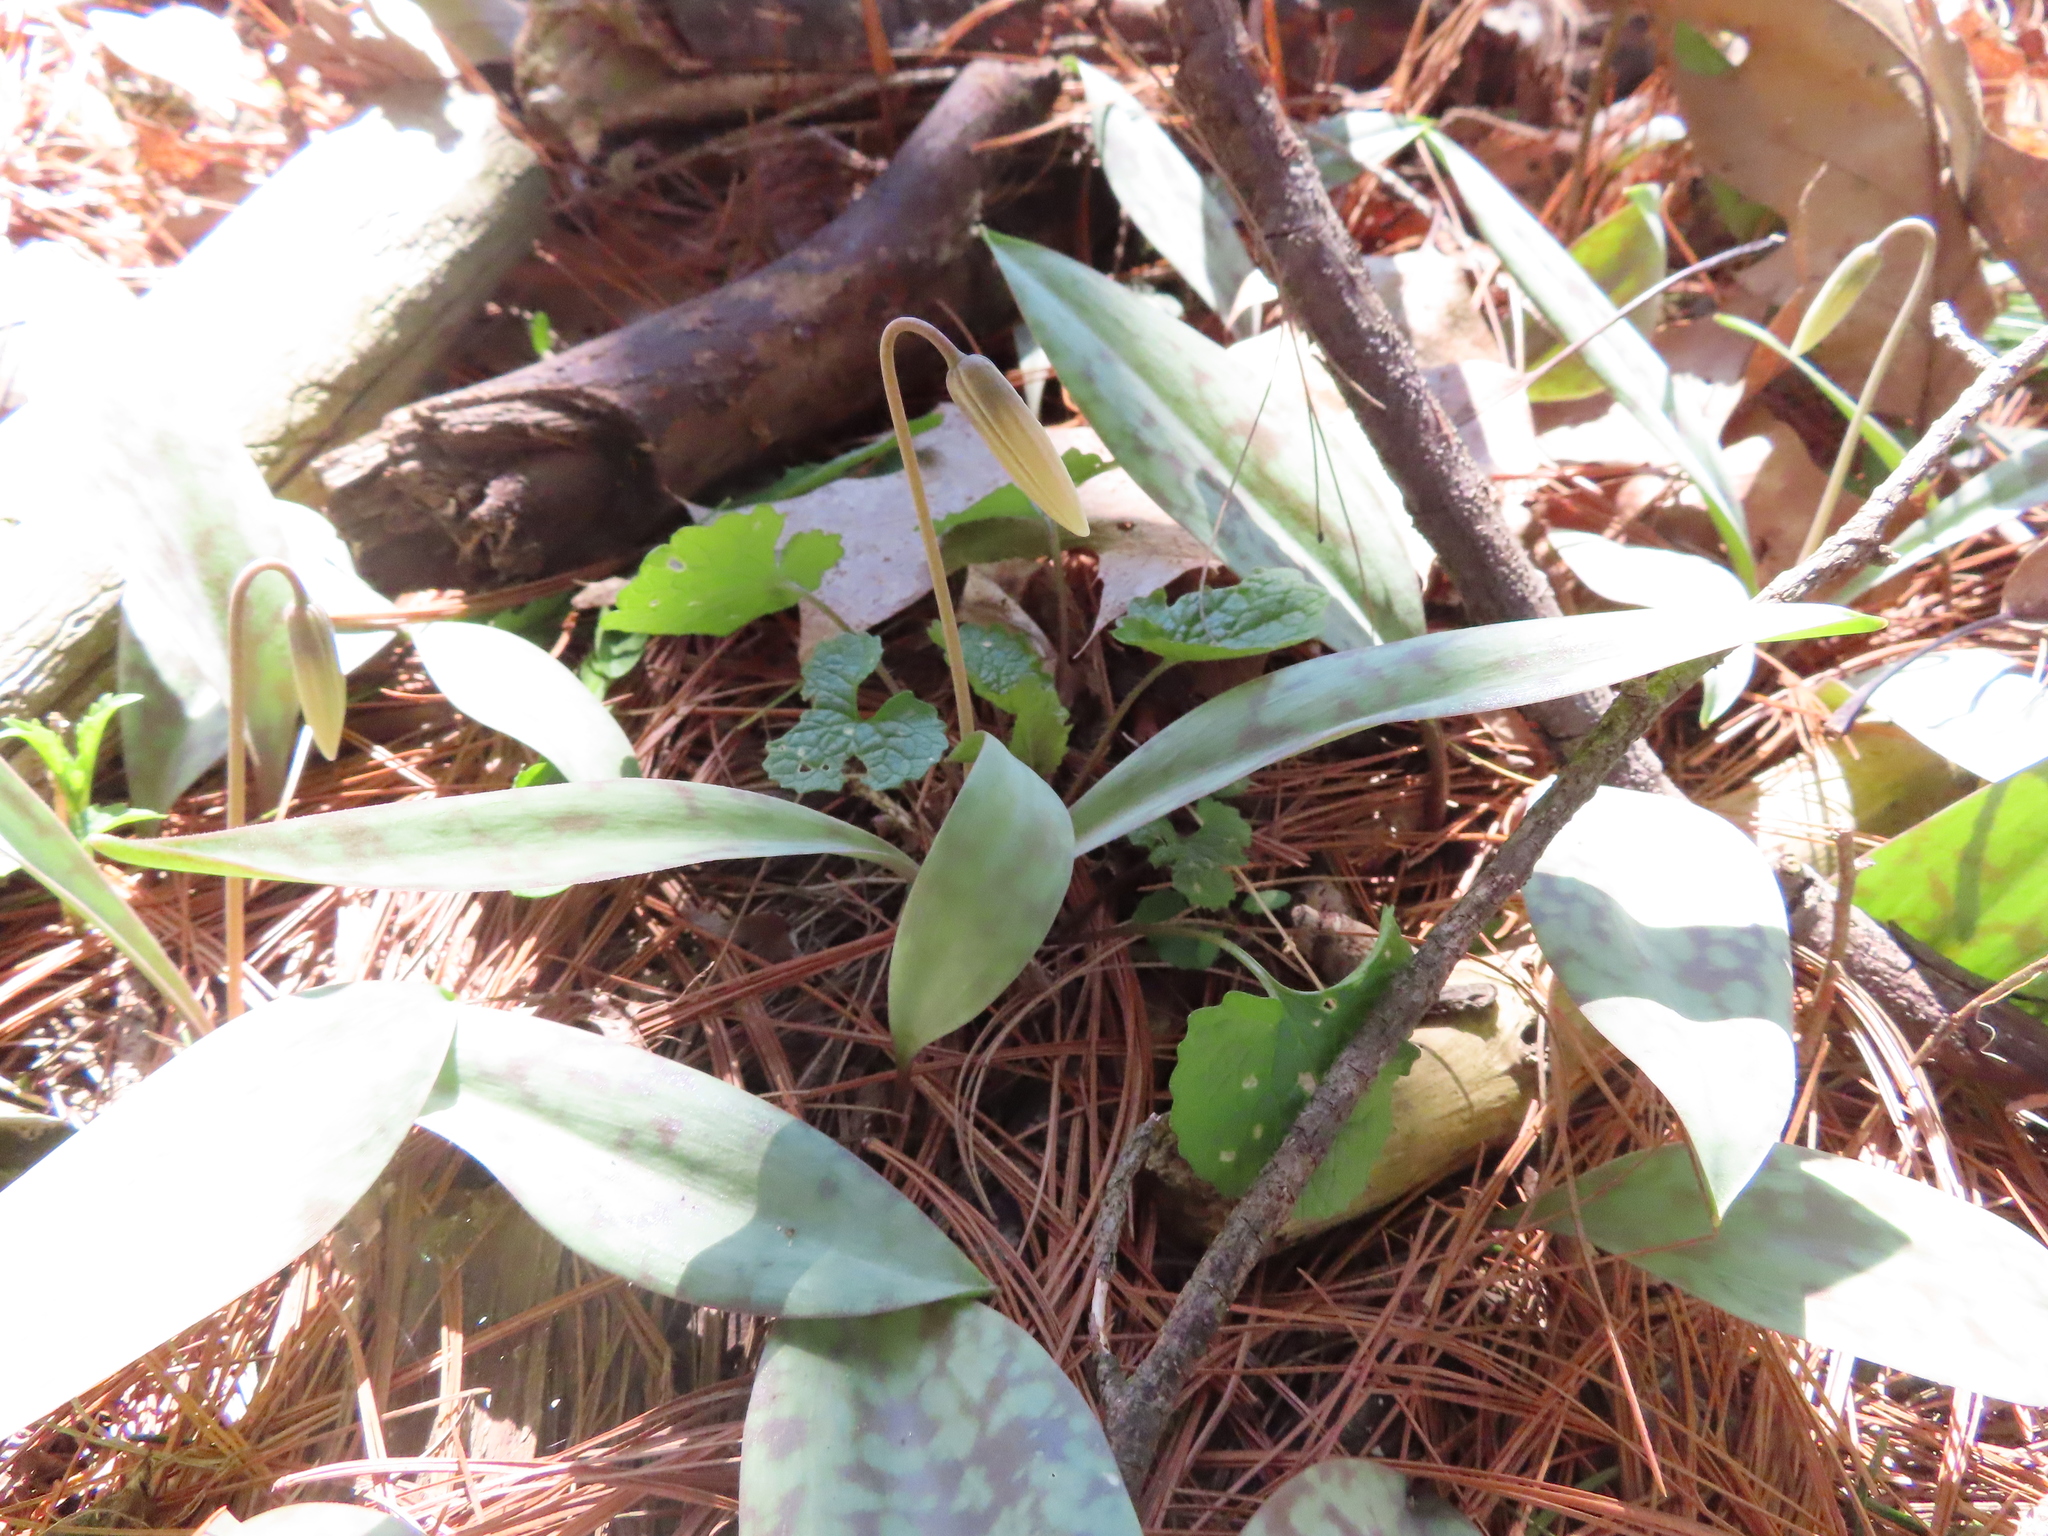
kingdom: Plantae
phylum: Tracheophyta
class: Liliopsida
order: Liliales
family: Liliaceae
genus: Erythronium
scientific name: Erythronium albidum
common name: White trout-lily
